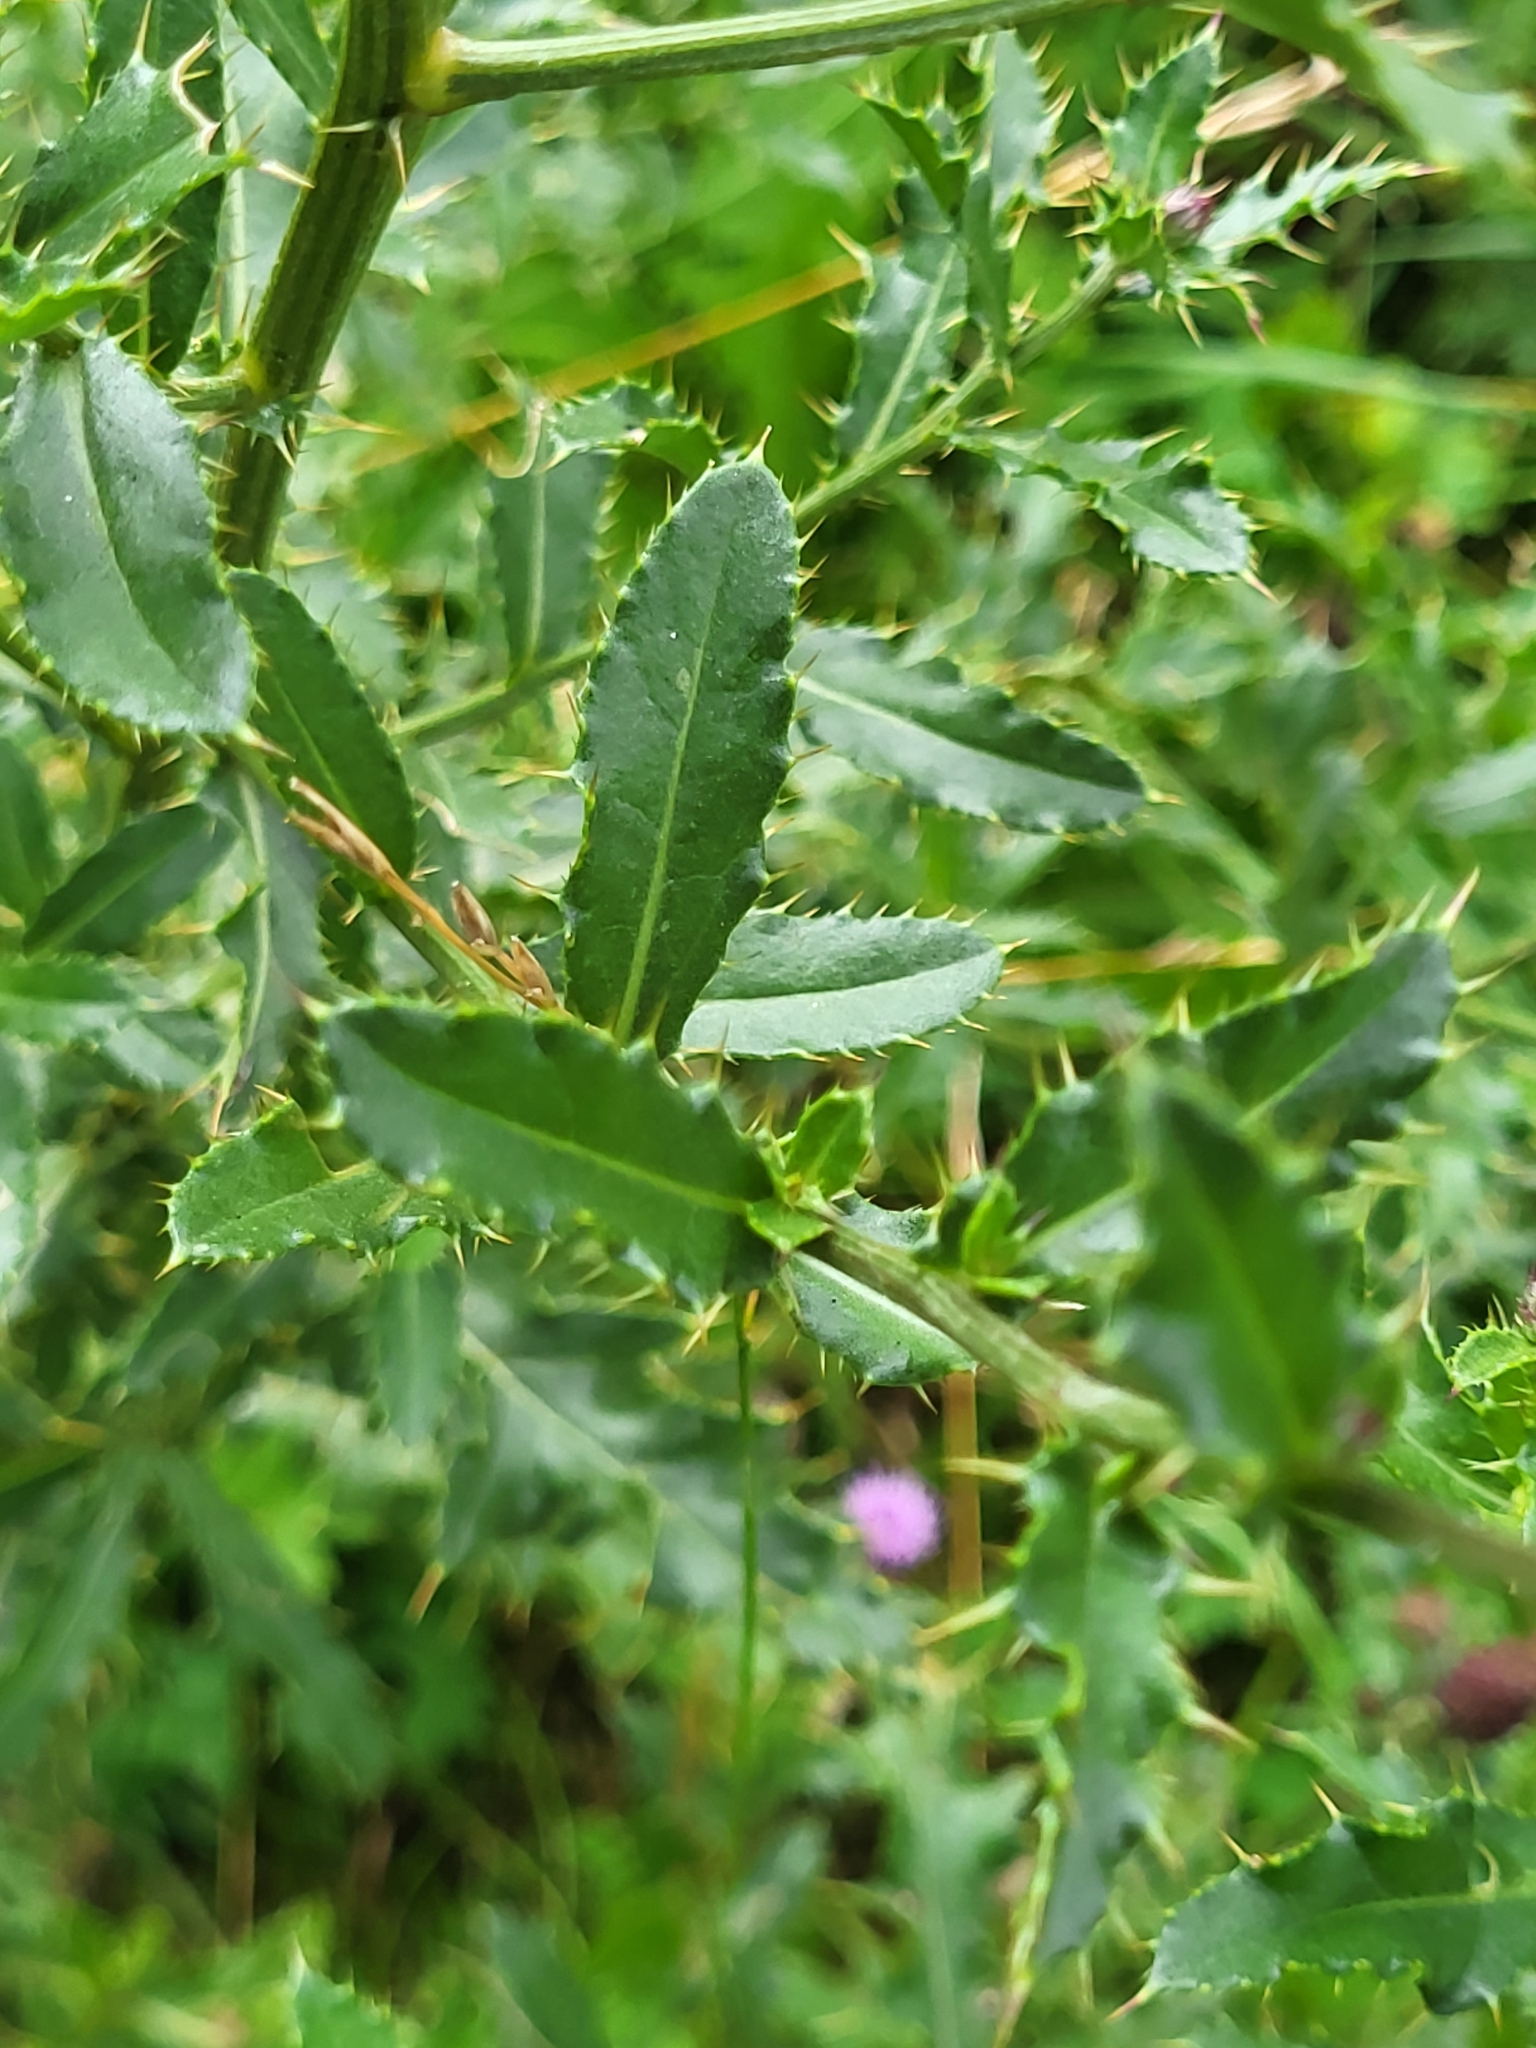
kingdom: Plantae
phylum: Tracheophyta
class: Magnoliopsida
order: Asterales
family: Asteraceae
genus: Cirsium
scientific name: Cirsium arvense
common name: Creeping thistle
